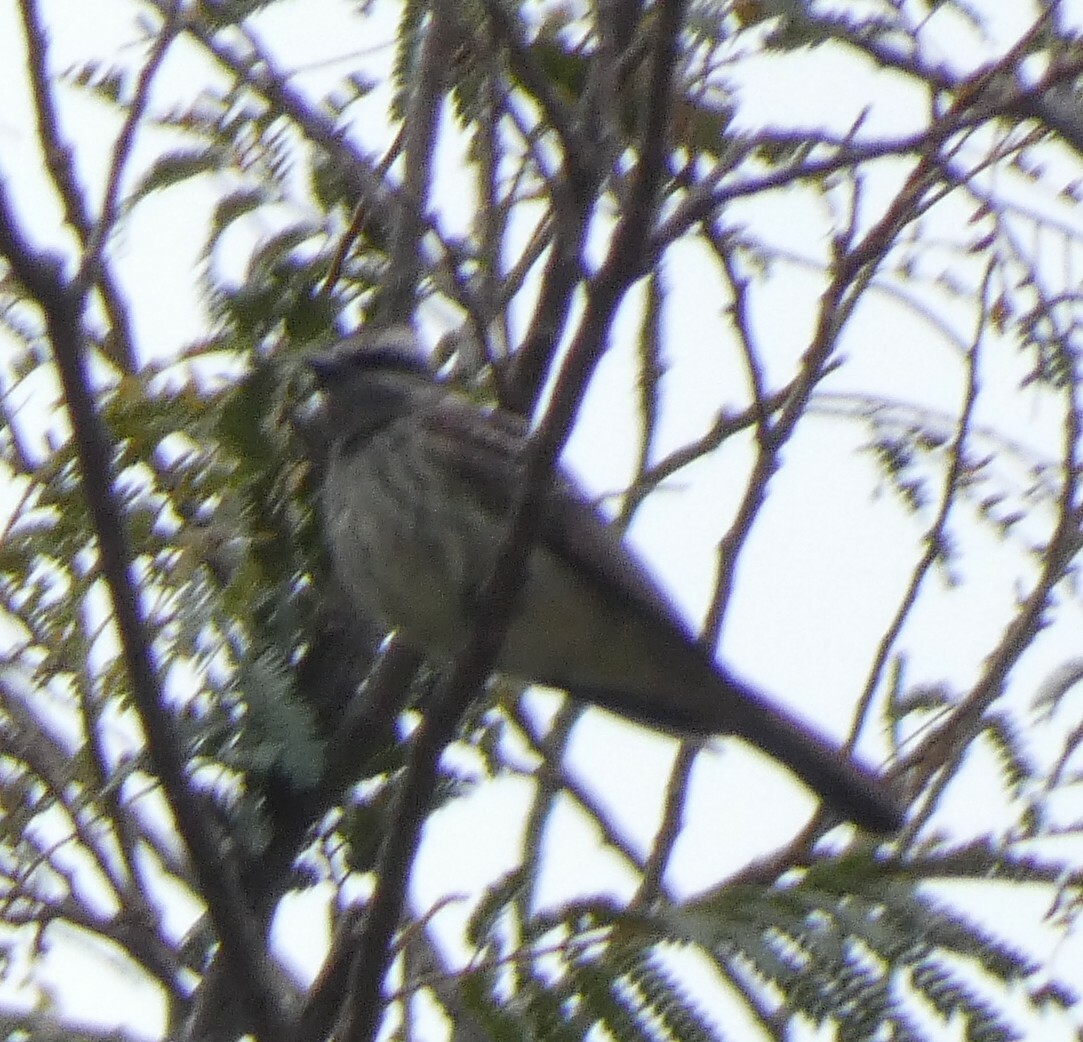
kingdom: Animalia
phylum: Chordata
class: Aves
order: Passeriformes
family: Tyrannidae
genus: Empidonomus
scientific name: Empidonomus varius
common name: Variegated flycatcher
